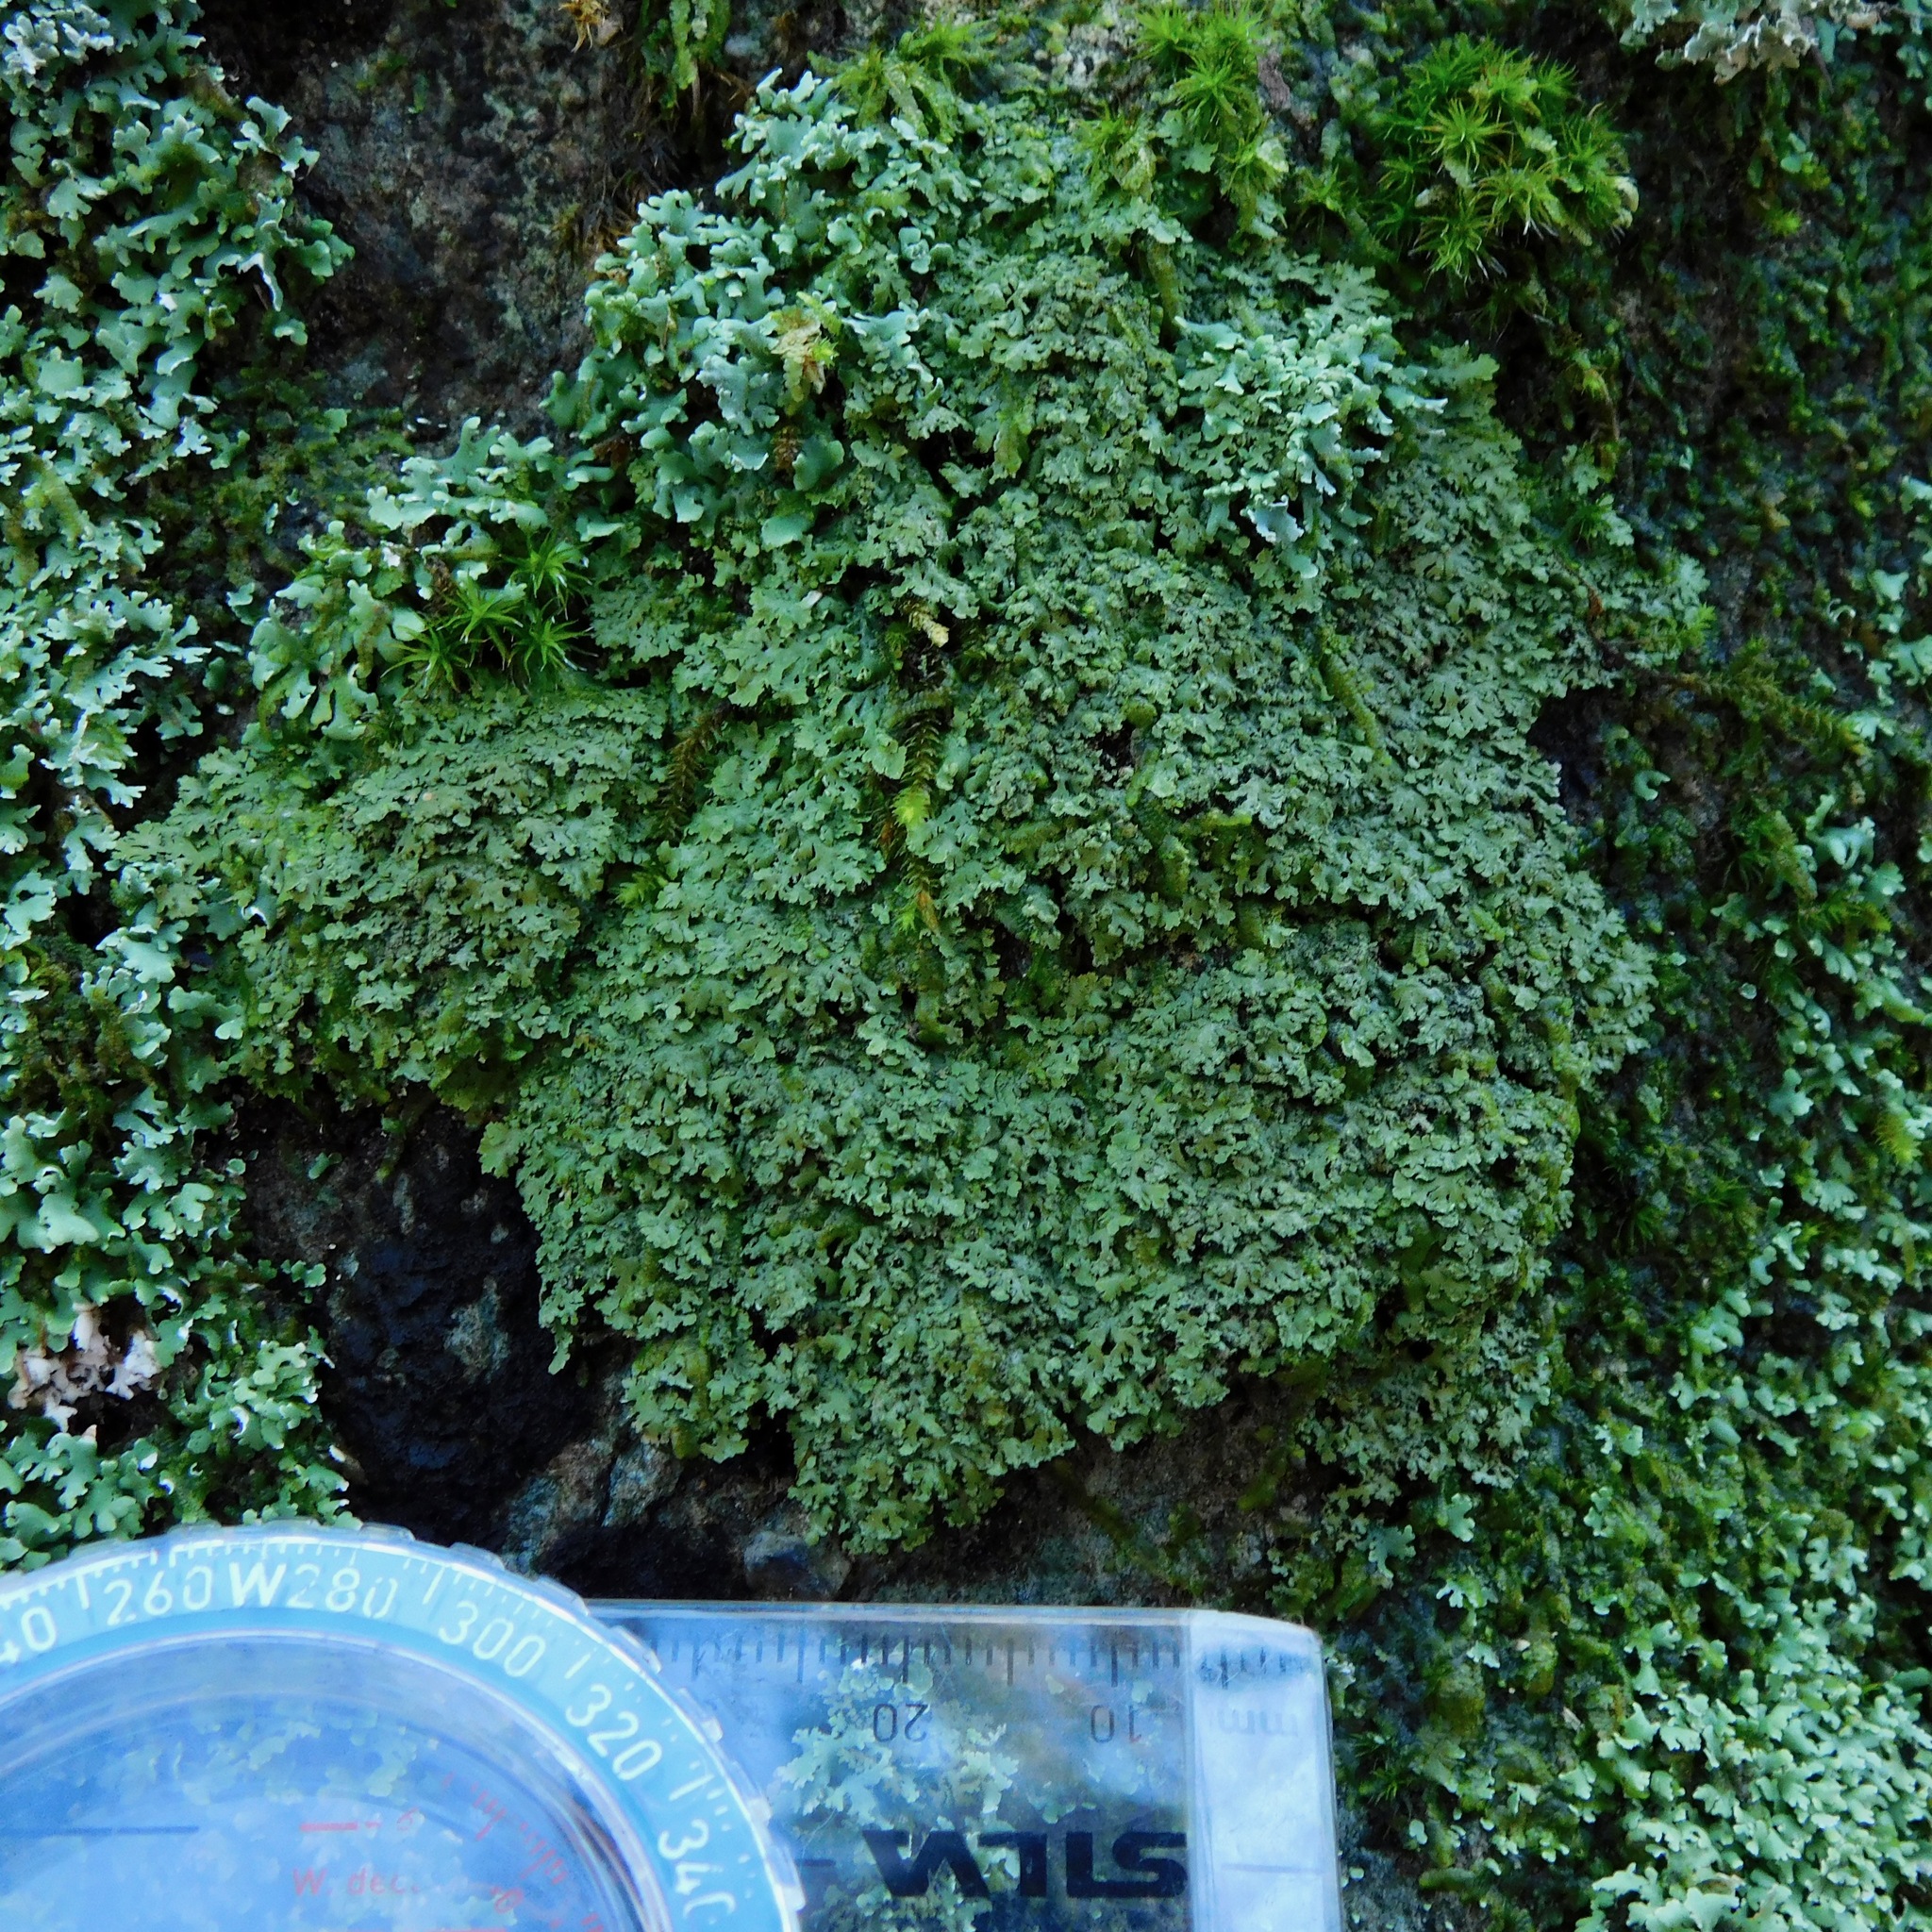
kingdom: Fungi
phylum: Ascomycota
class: Lecanoromycetes
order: Caliciales
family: Physciaceae
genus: Polyblastidium
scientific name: Polyblastidium casarettianum
